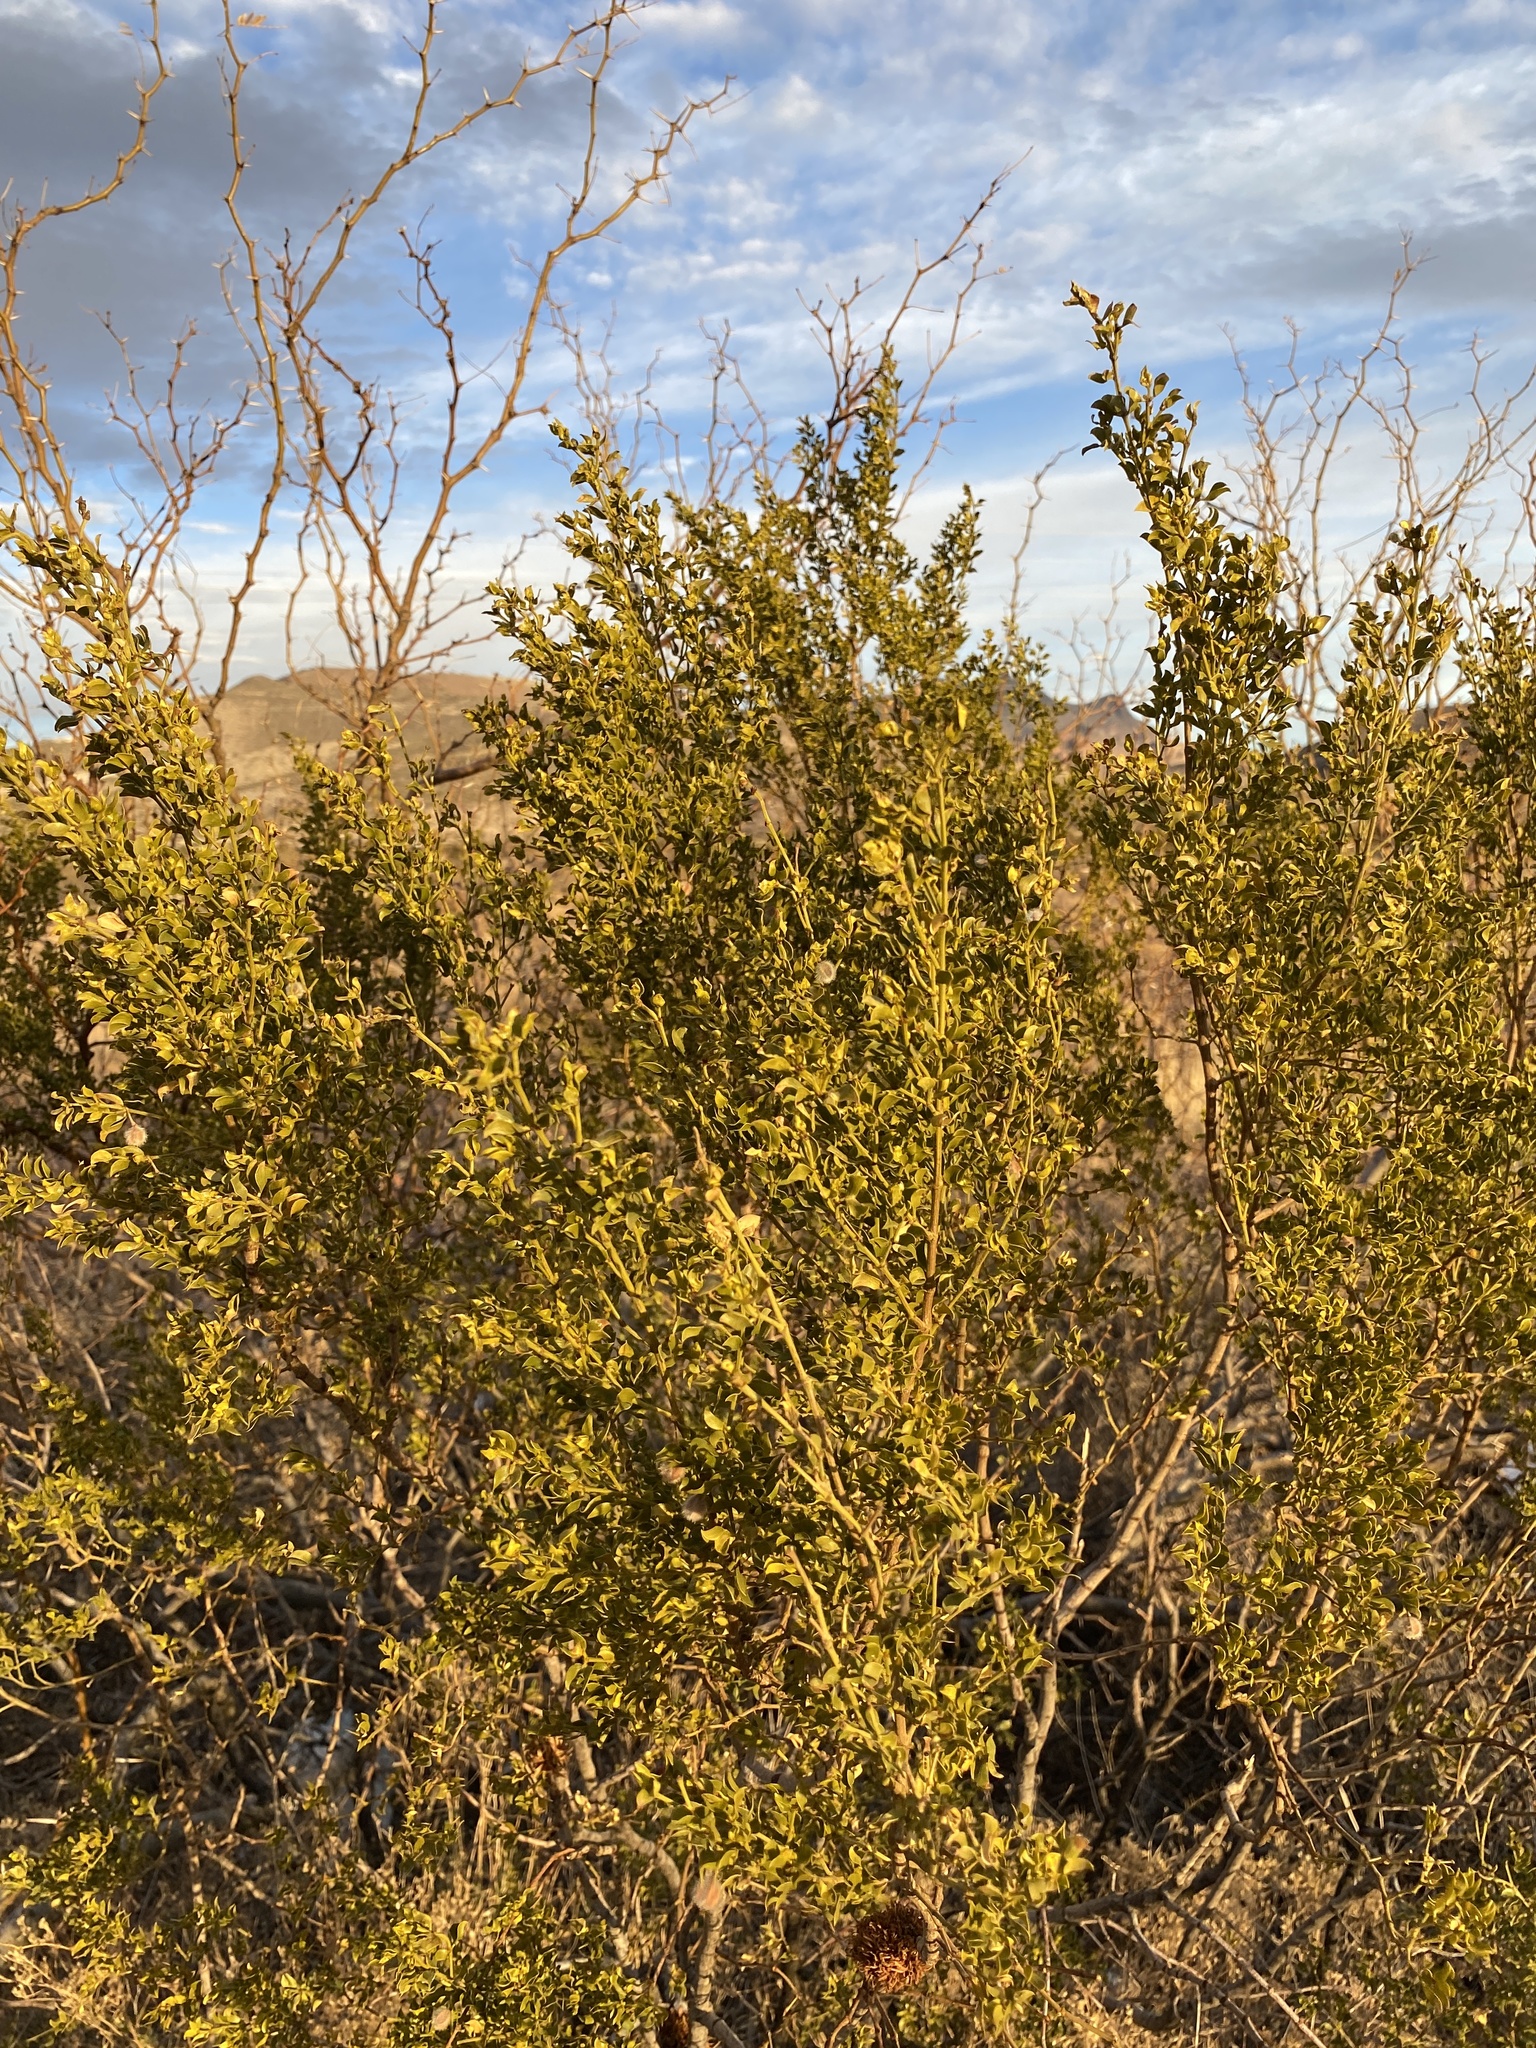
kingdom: Plantae
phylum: Tracheophyta
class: Magnoliopsida
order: Zygophyllales
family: Zygophyllaceae
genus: Larrea
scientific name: Larrea tridentata
